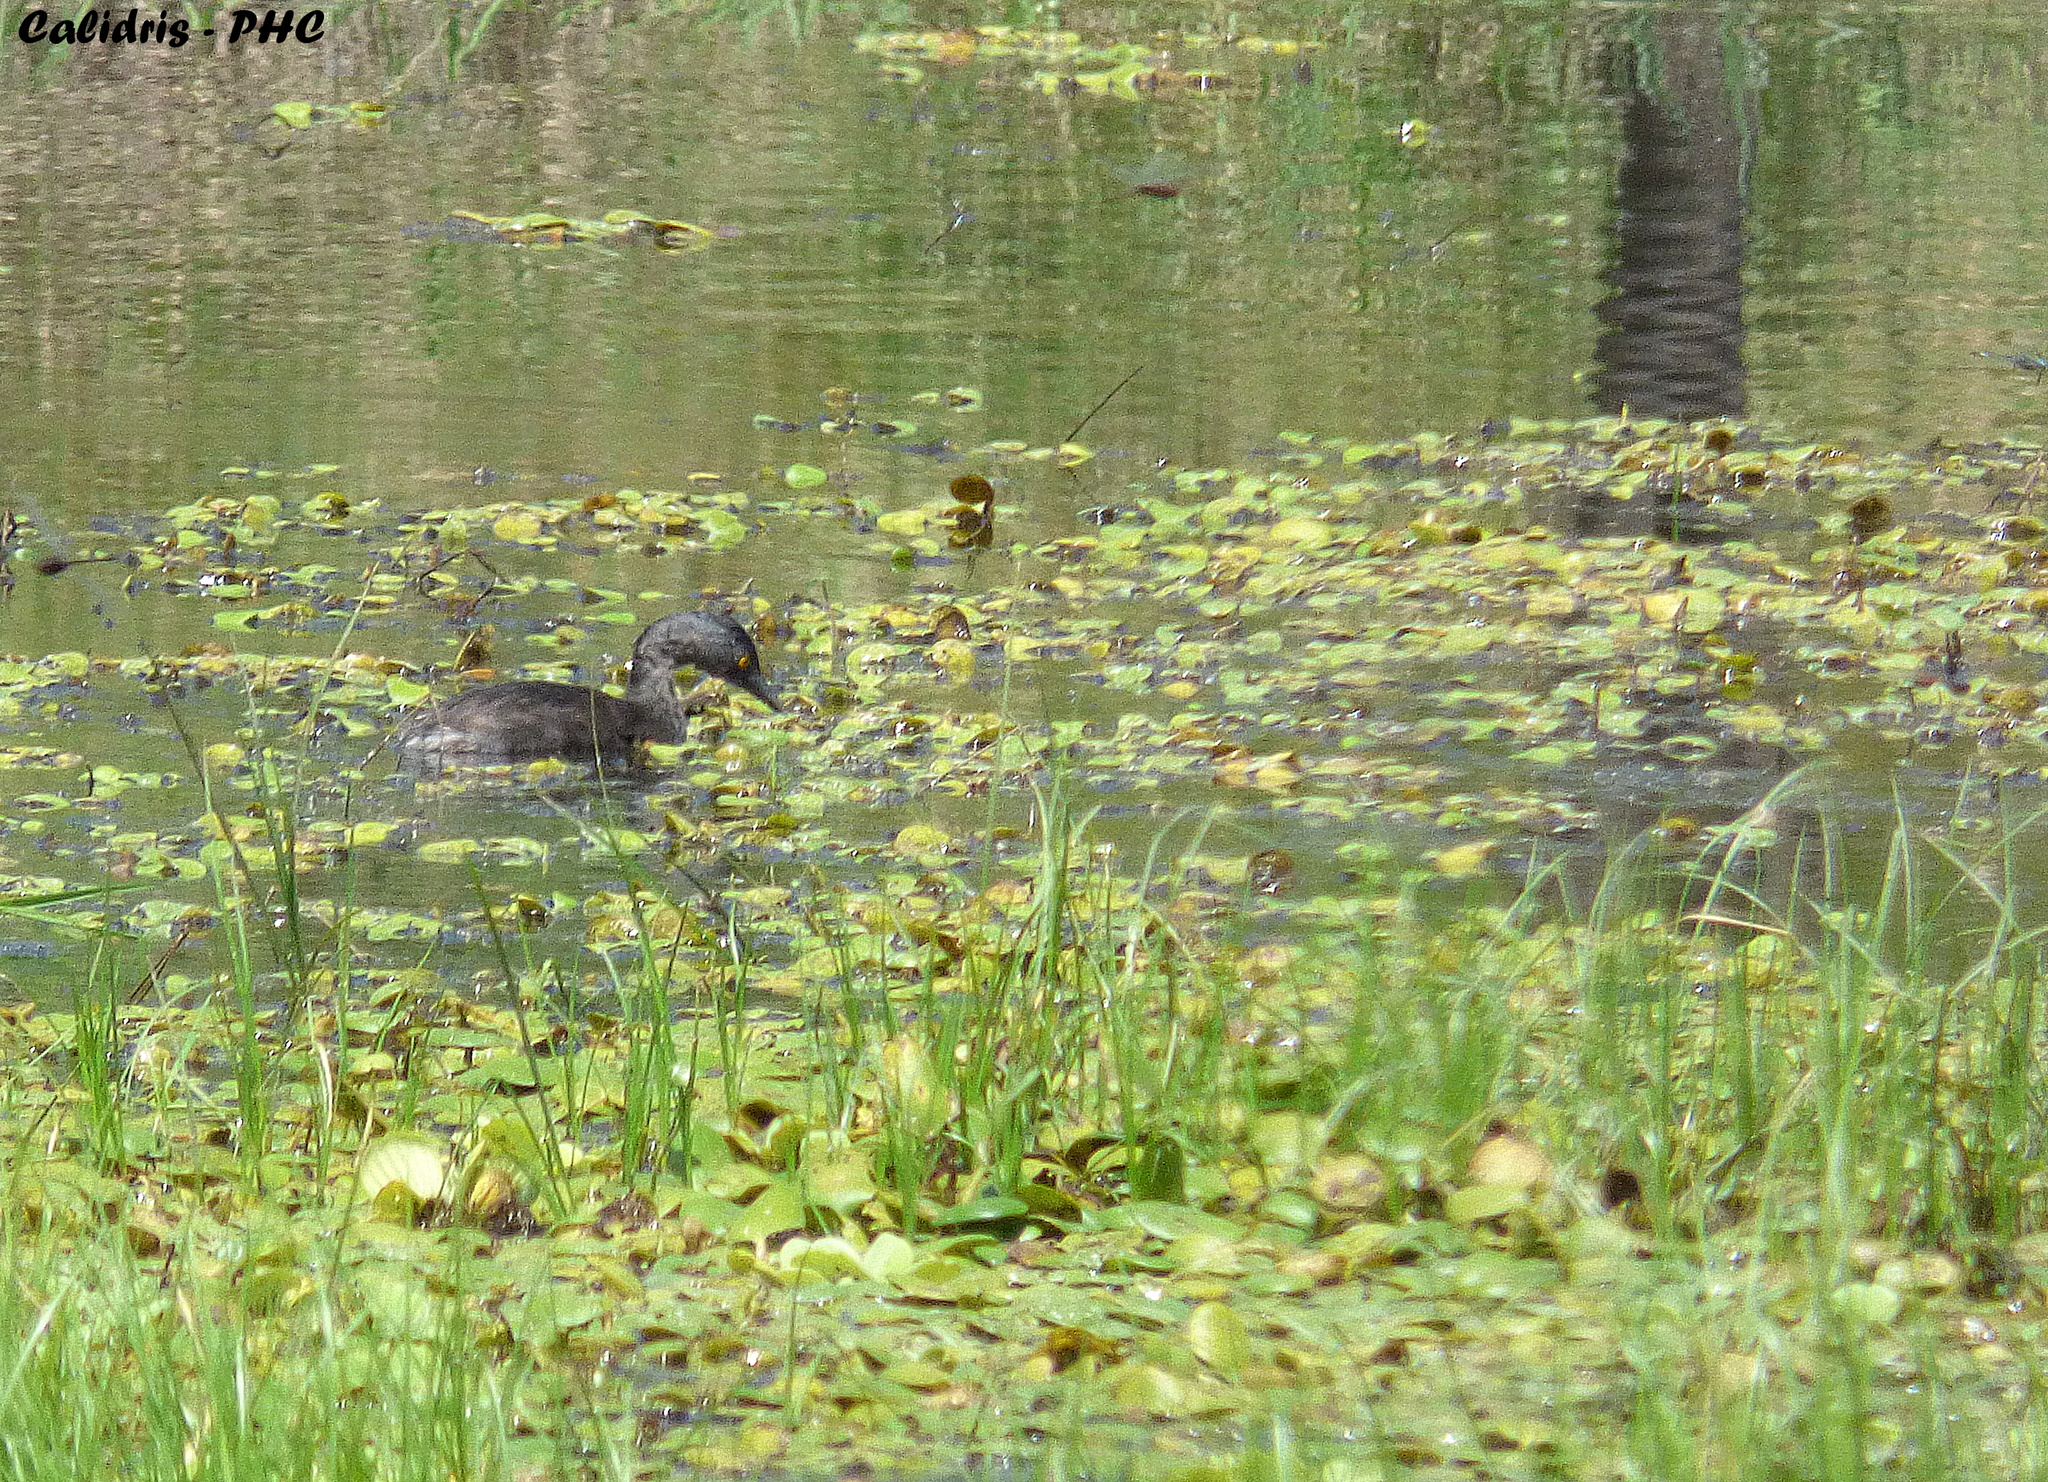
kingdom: Animalia
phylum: Chordata
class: Aves
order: Podicipediformes
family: Podicipedidae
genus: Tachybaptus
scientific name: Tachybaptus dominicus
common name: Least grebe
